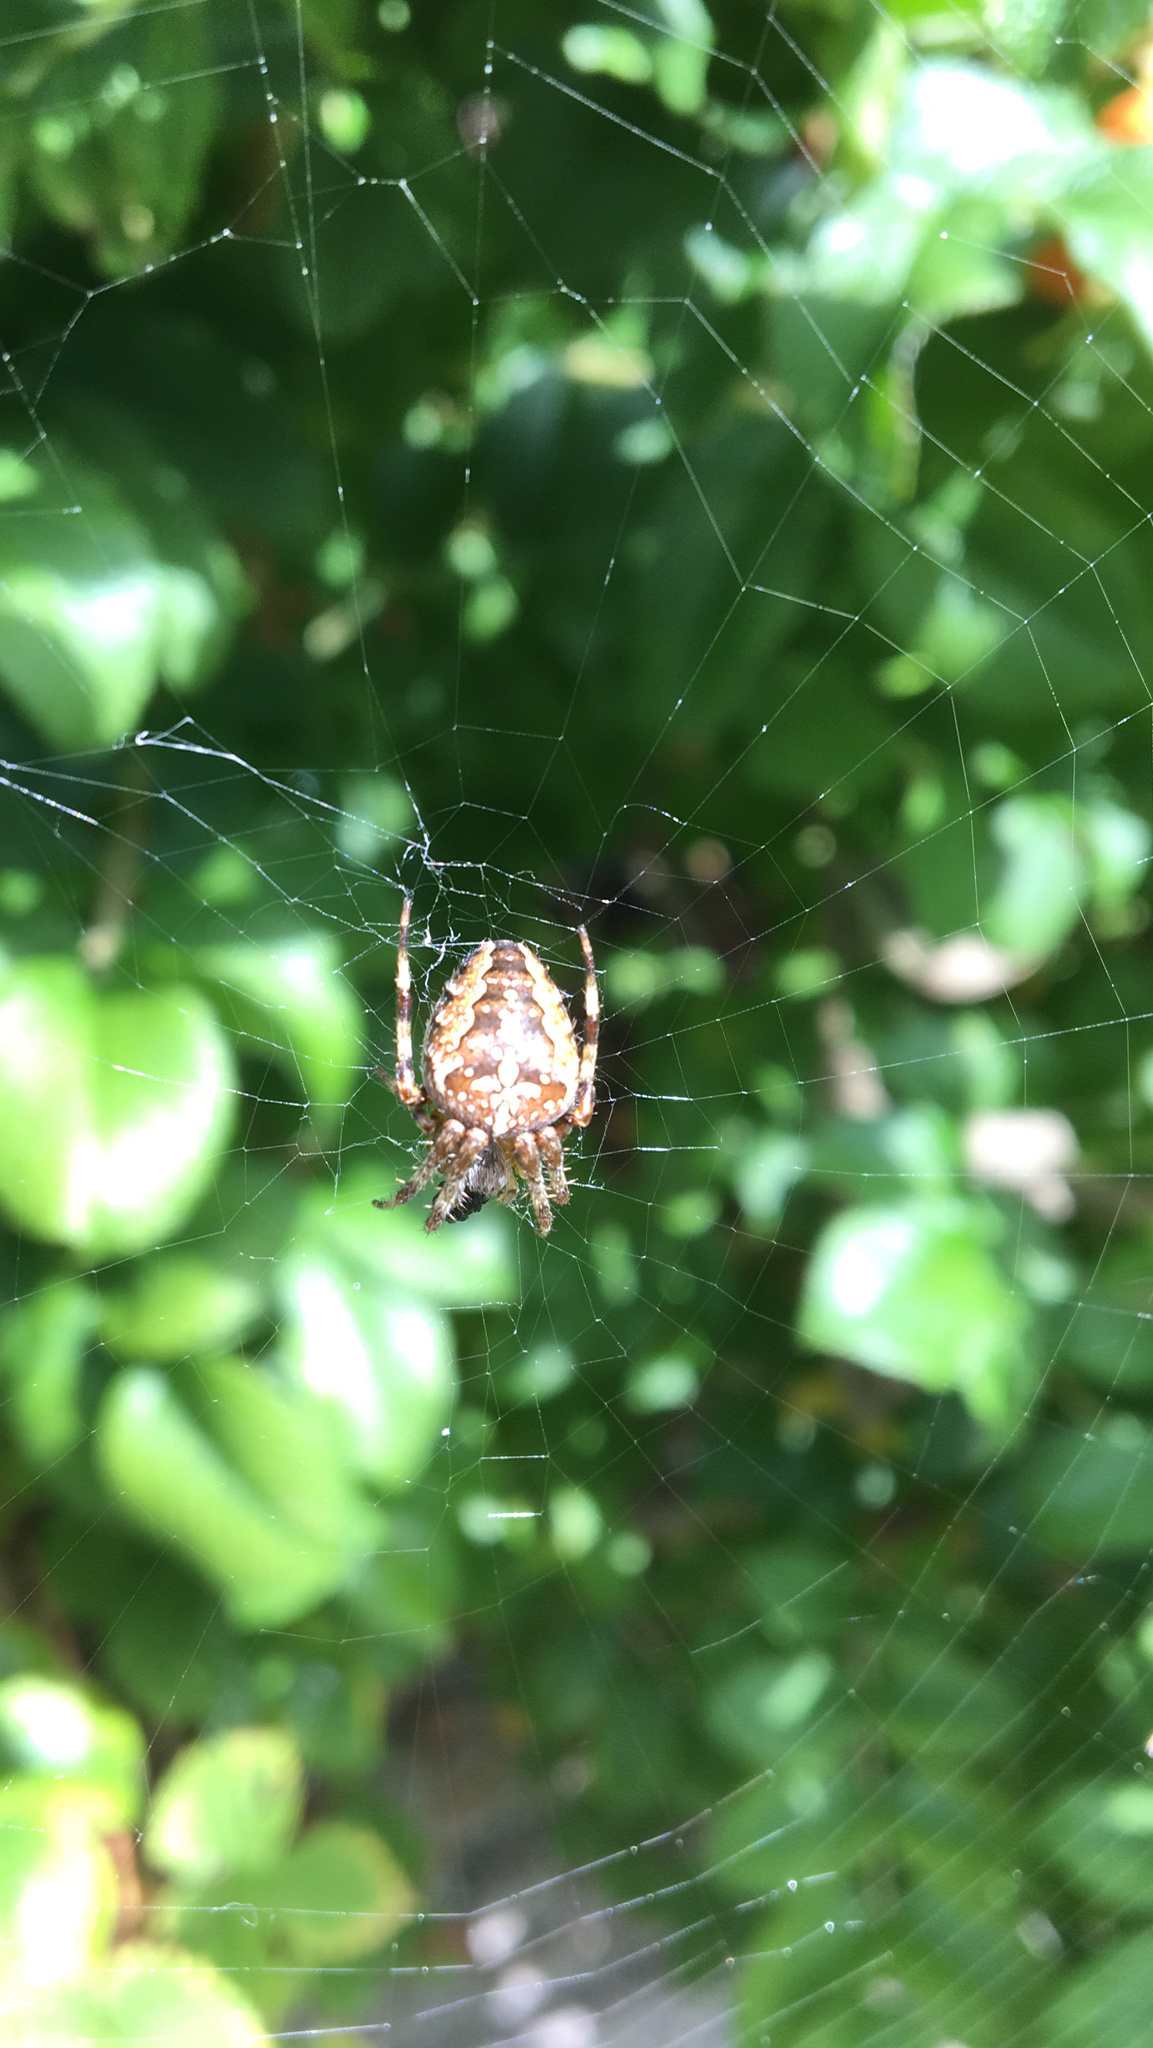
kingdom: Animalia
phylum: Arthropoda
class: Arachnida
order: Araneae
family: Araneidae
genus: Araneus
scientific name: Araneus diadematus
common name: Cross orbweaver
